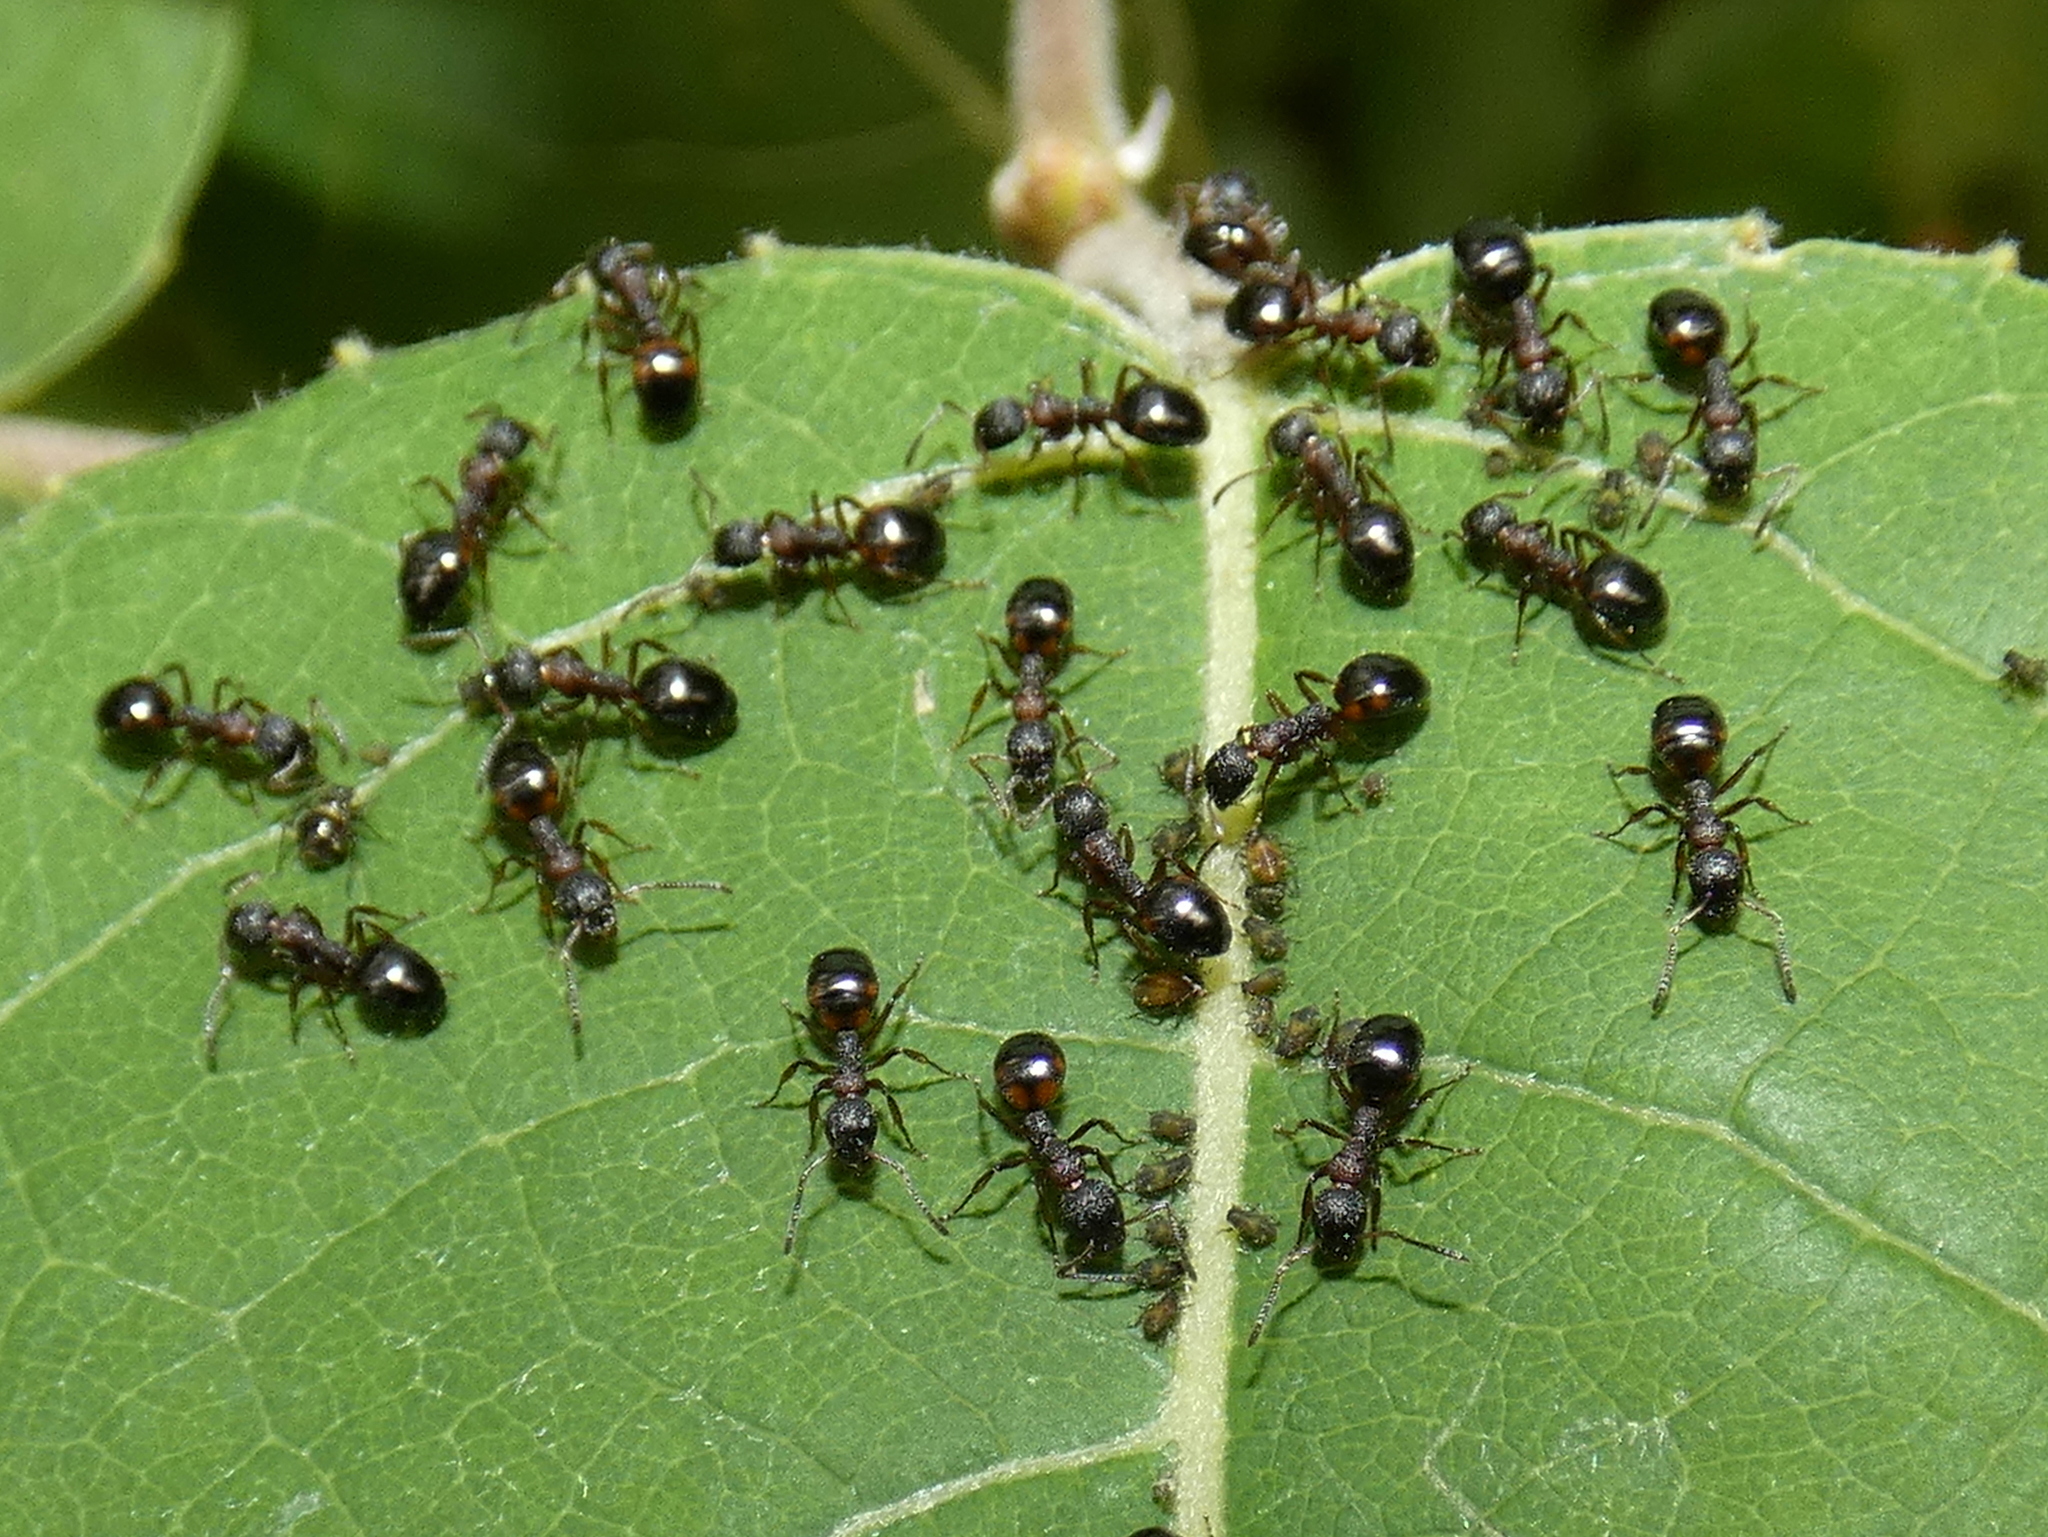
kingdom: Animalia
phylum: Arthropoda
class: Insecta
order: Hymenoptera
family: Formicidae
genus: Dolichoderus
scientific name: Dolichoderus plagiatus
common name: Mottled dolichoderus
